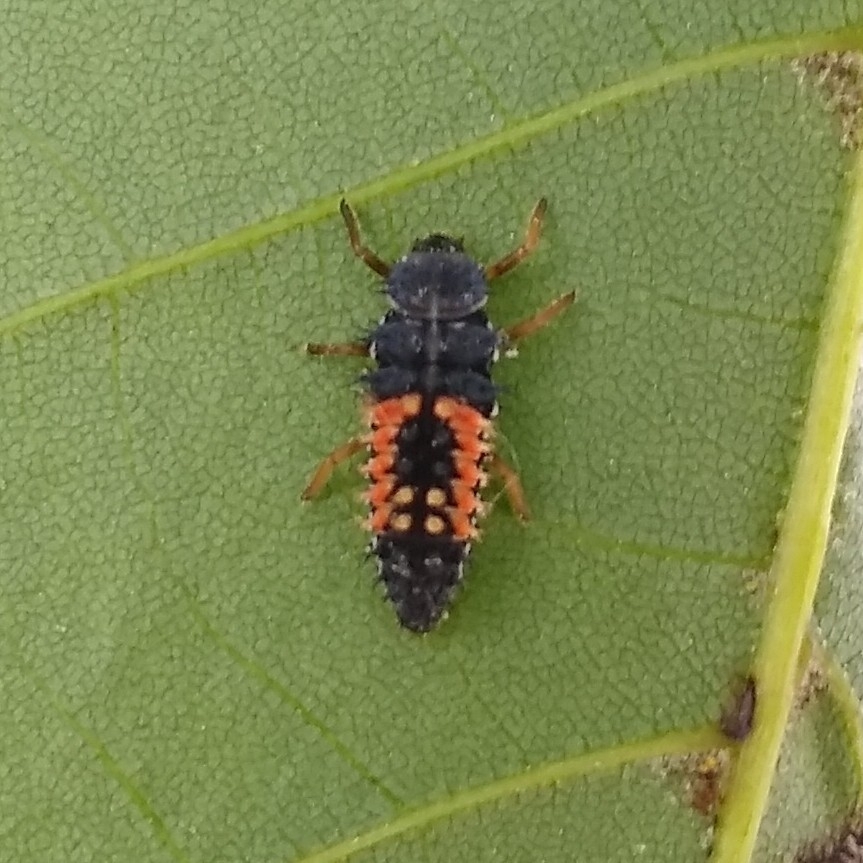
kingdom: Animalia
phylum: Arthropoda
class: Insecta
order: Coleoptera
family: Coccinellidae
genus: Harmonia
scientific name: Harmonia axyridis
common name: Harlequin ladybird
